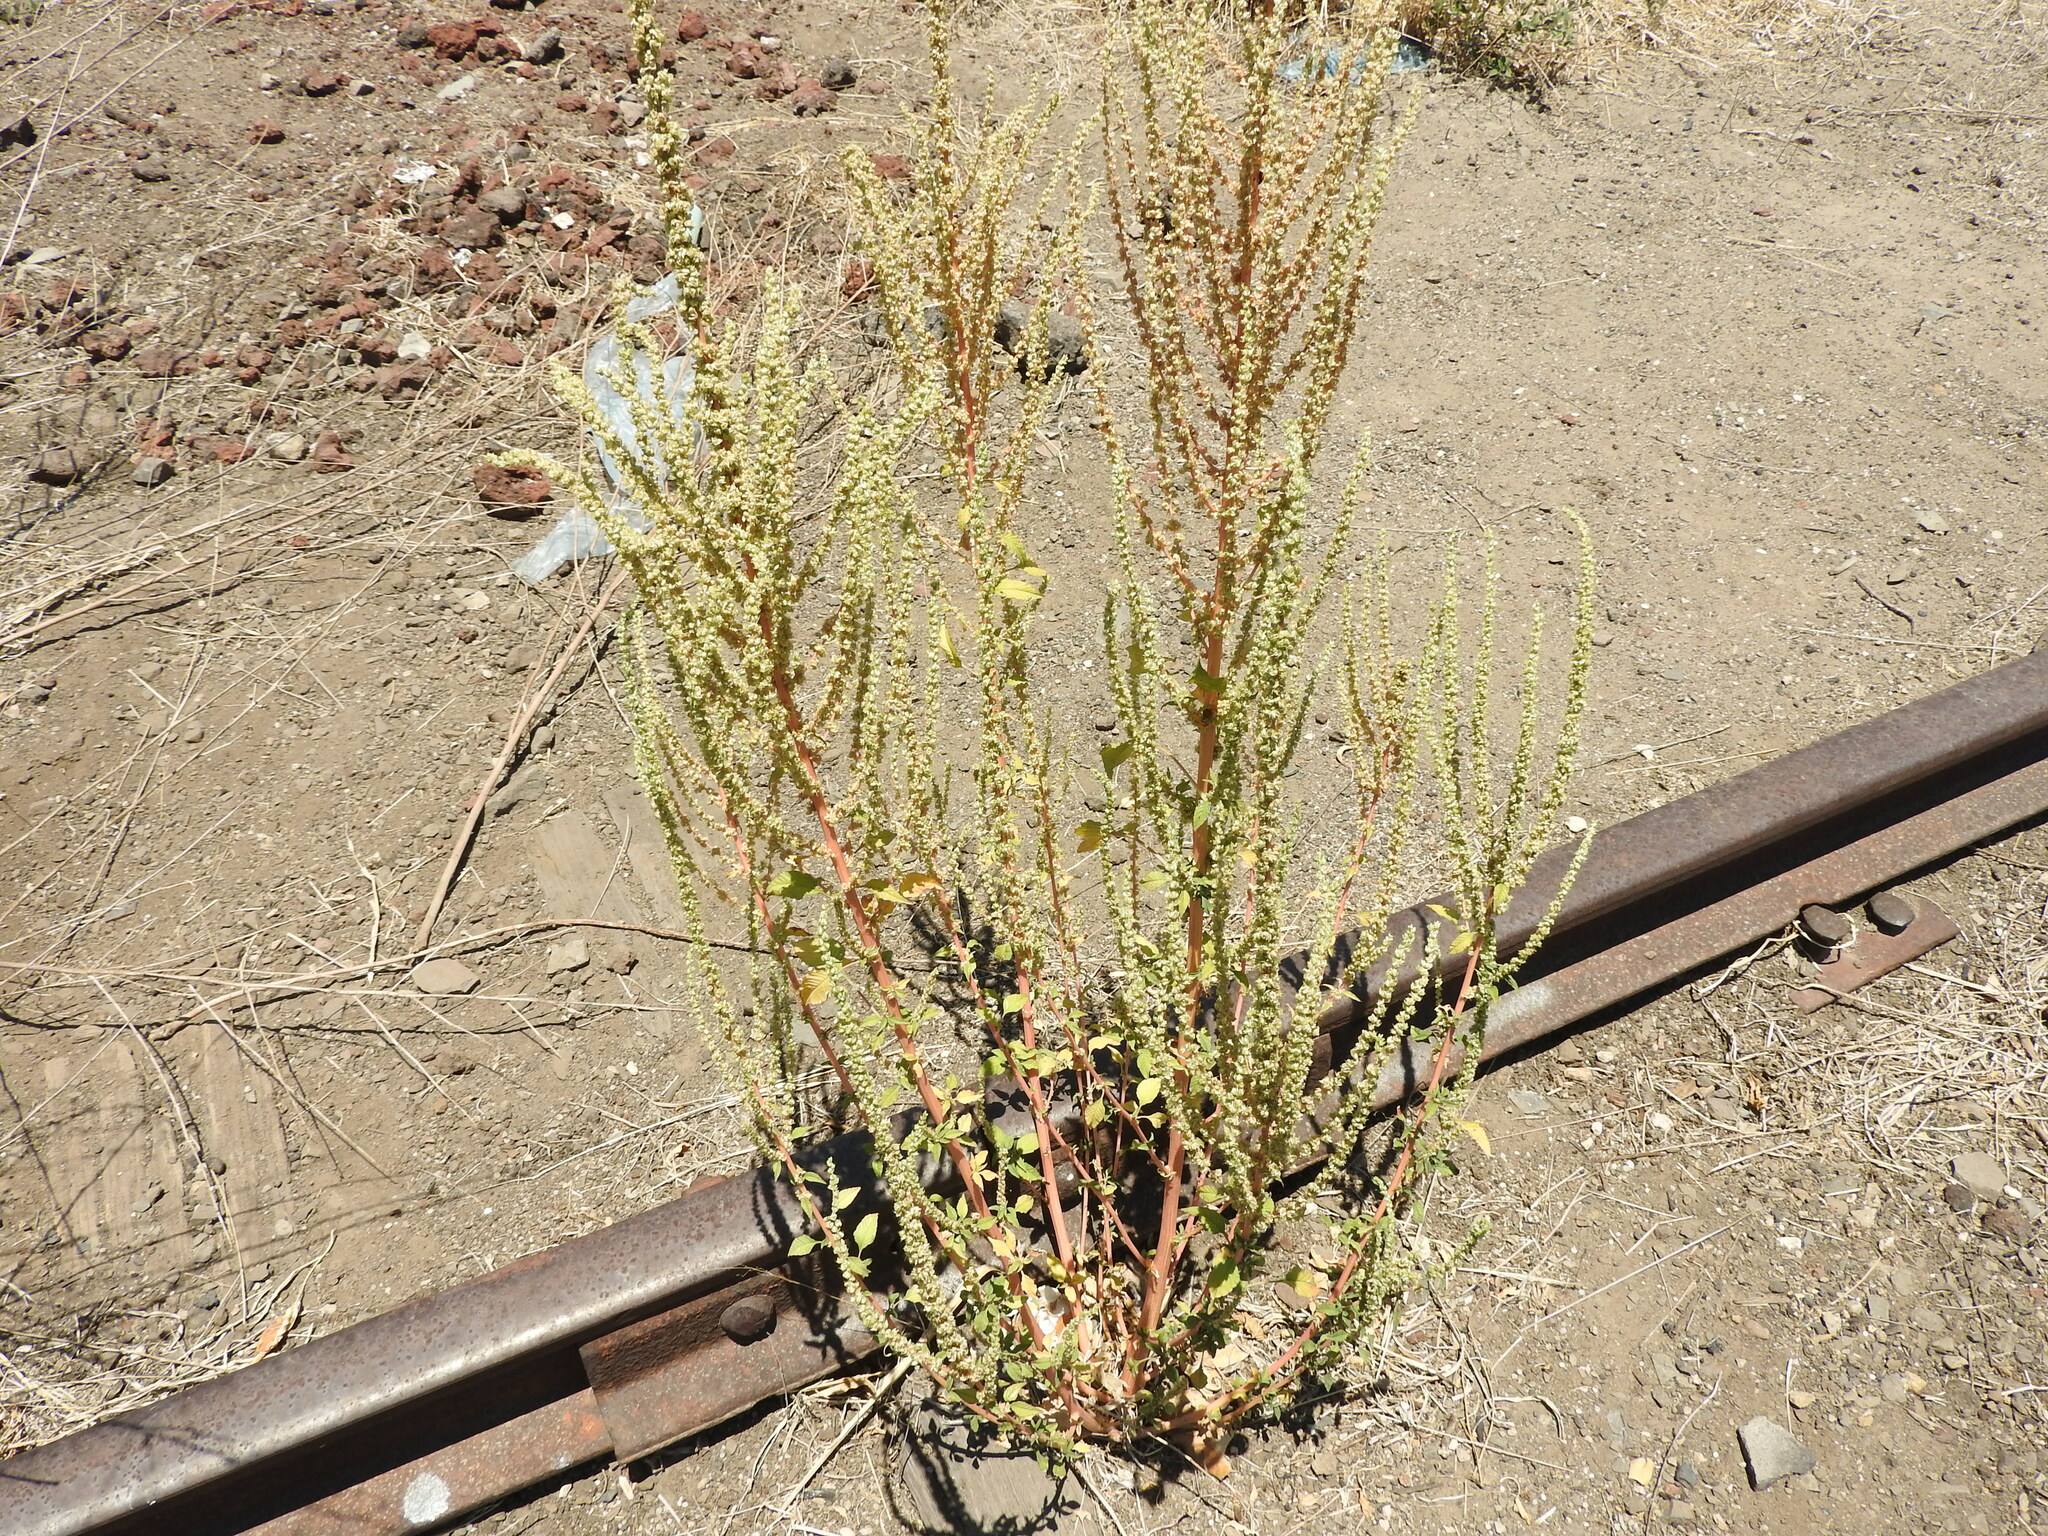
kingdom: Plantae
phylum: Tracheophyta
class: Magnoliopsida
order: Caryophyllales
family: Amaranthaceae
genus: Chenopodium
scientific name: Chenopodium fremontii
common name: Fremont's goosefoot
